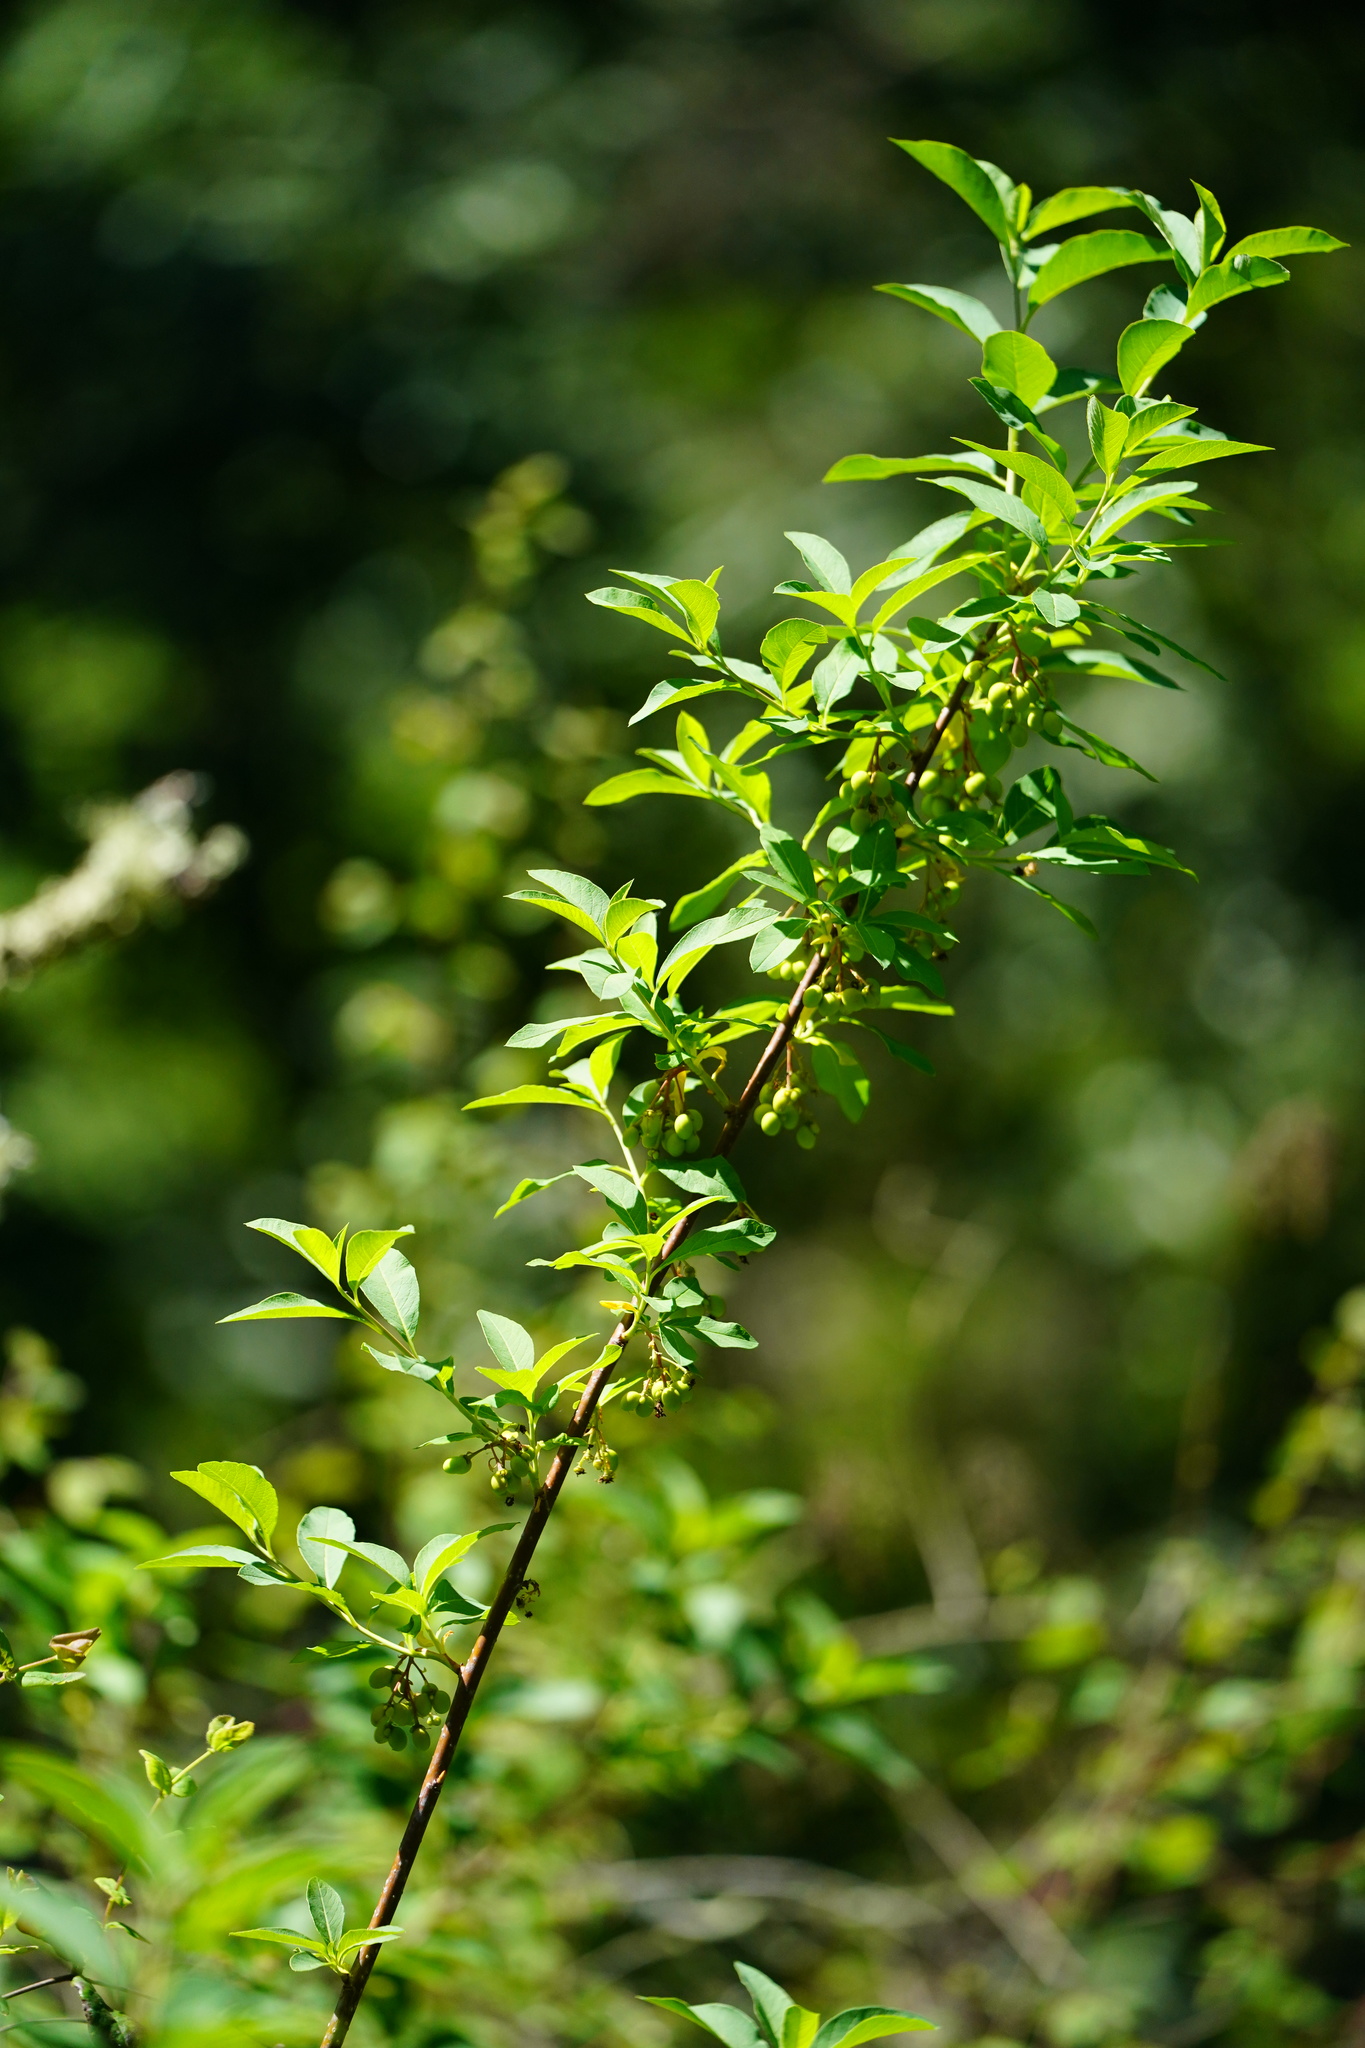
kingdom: Plantae
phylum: Tracheophyta
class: Magnoliopsida
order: Rosales
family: Rosaceae
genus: Oemleria
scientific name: Oemleria cerasiformis
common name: Osoberry
